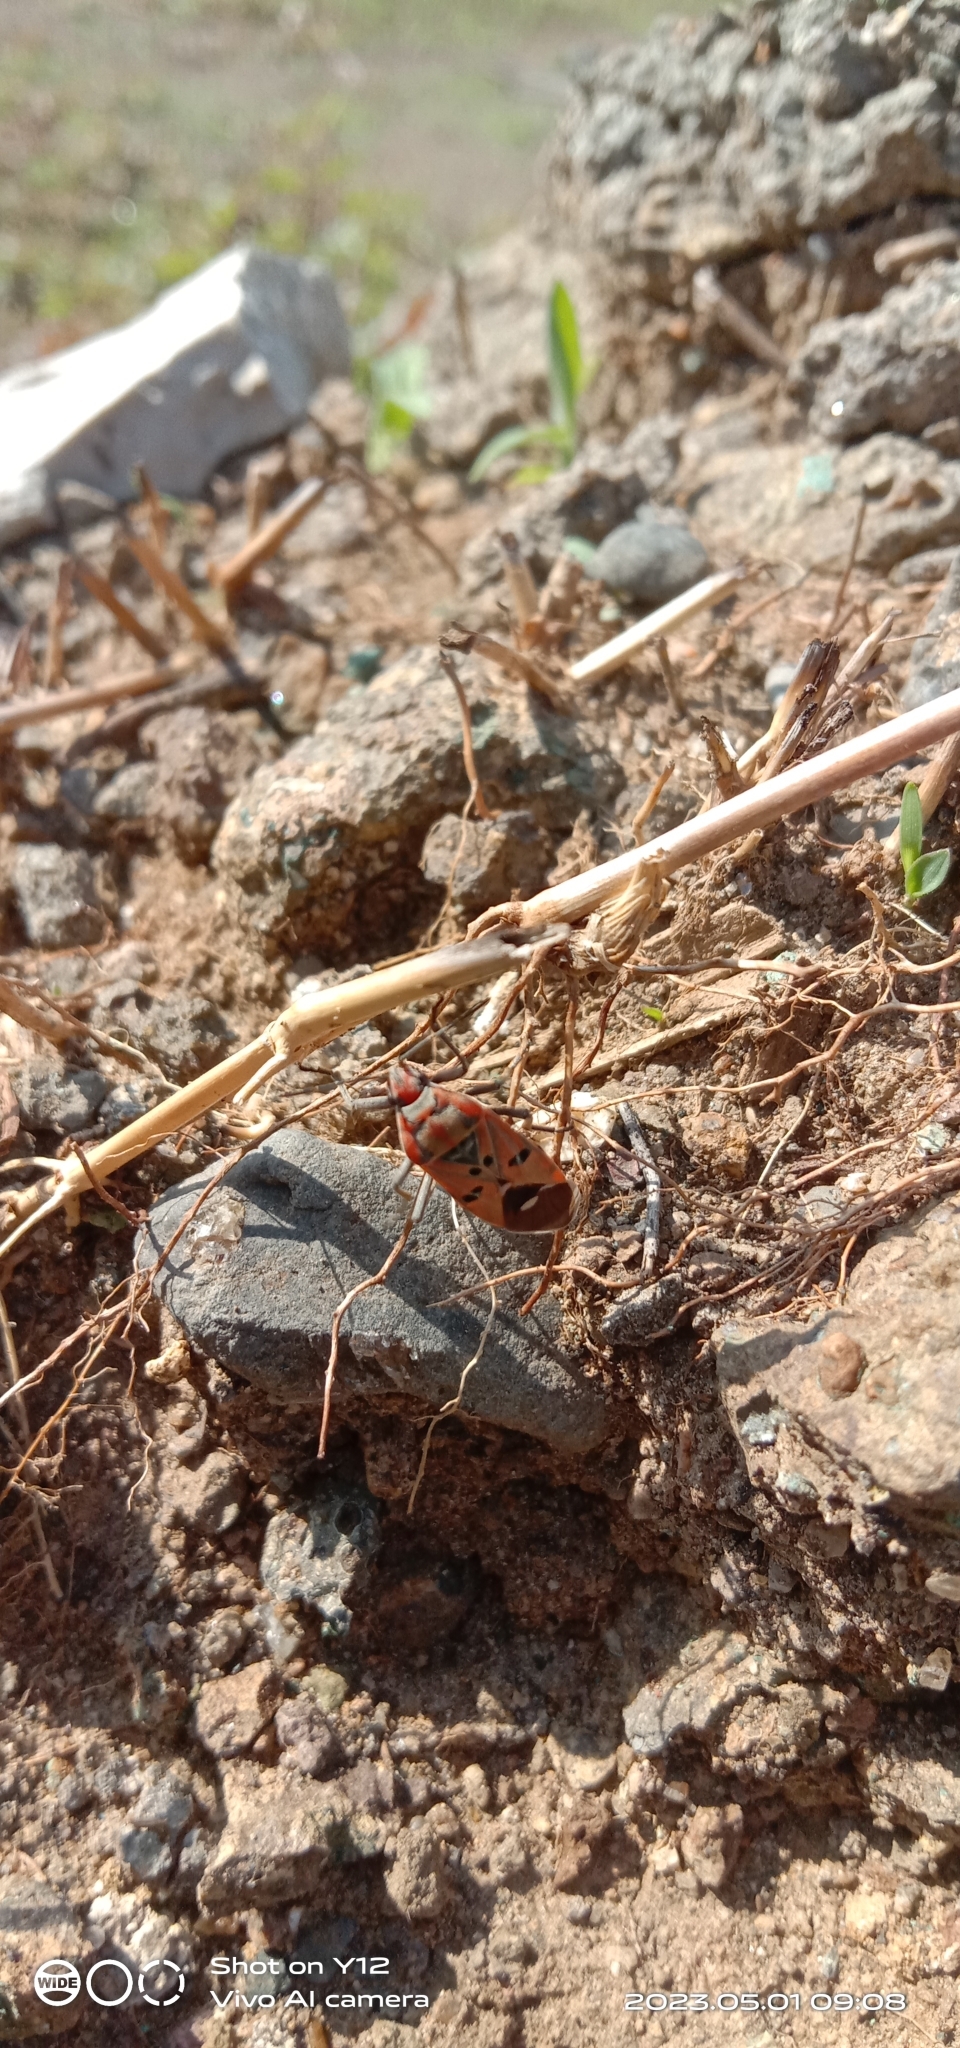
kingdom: Animalia
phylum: Arthropoda
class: Insecta
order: Hemiptera
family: Lygaeidae
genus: Spilostethus
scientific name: Spilostethus pandurus
